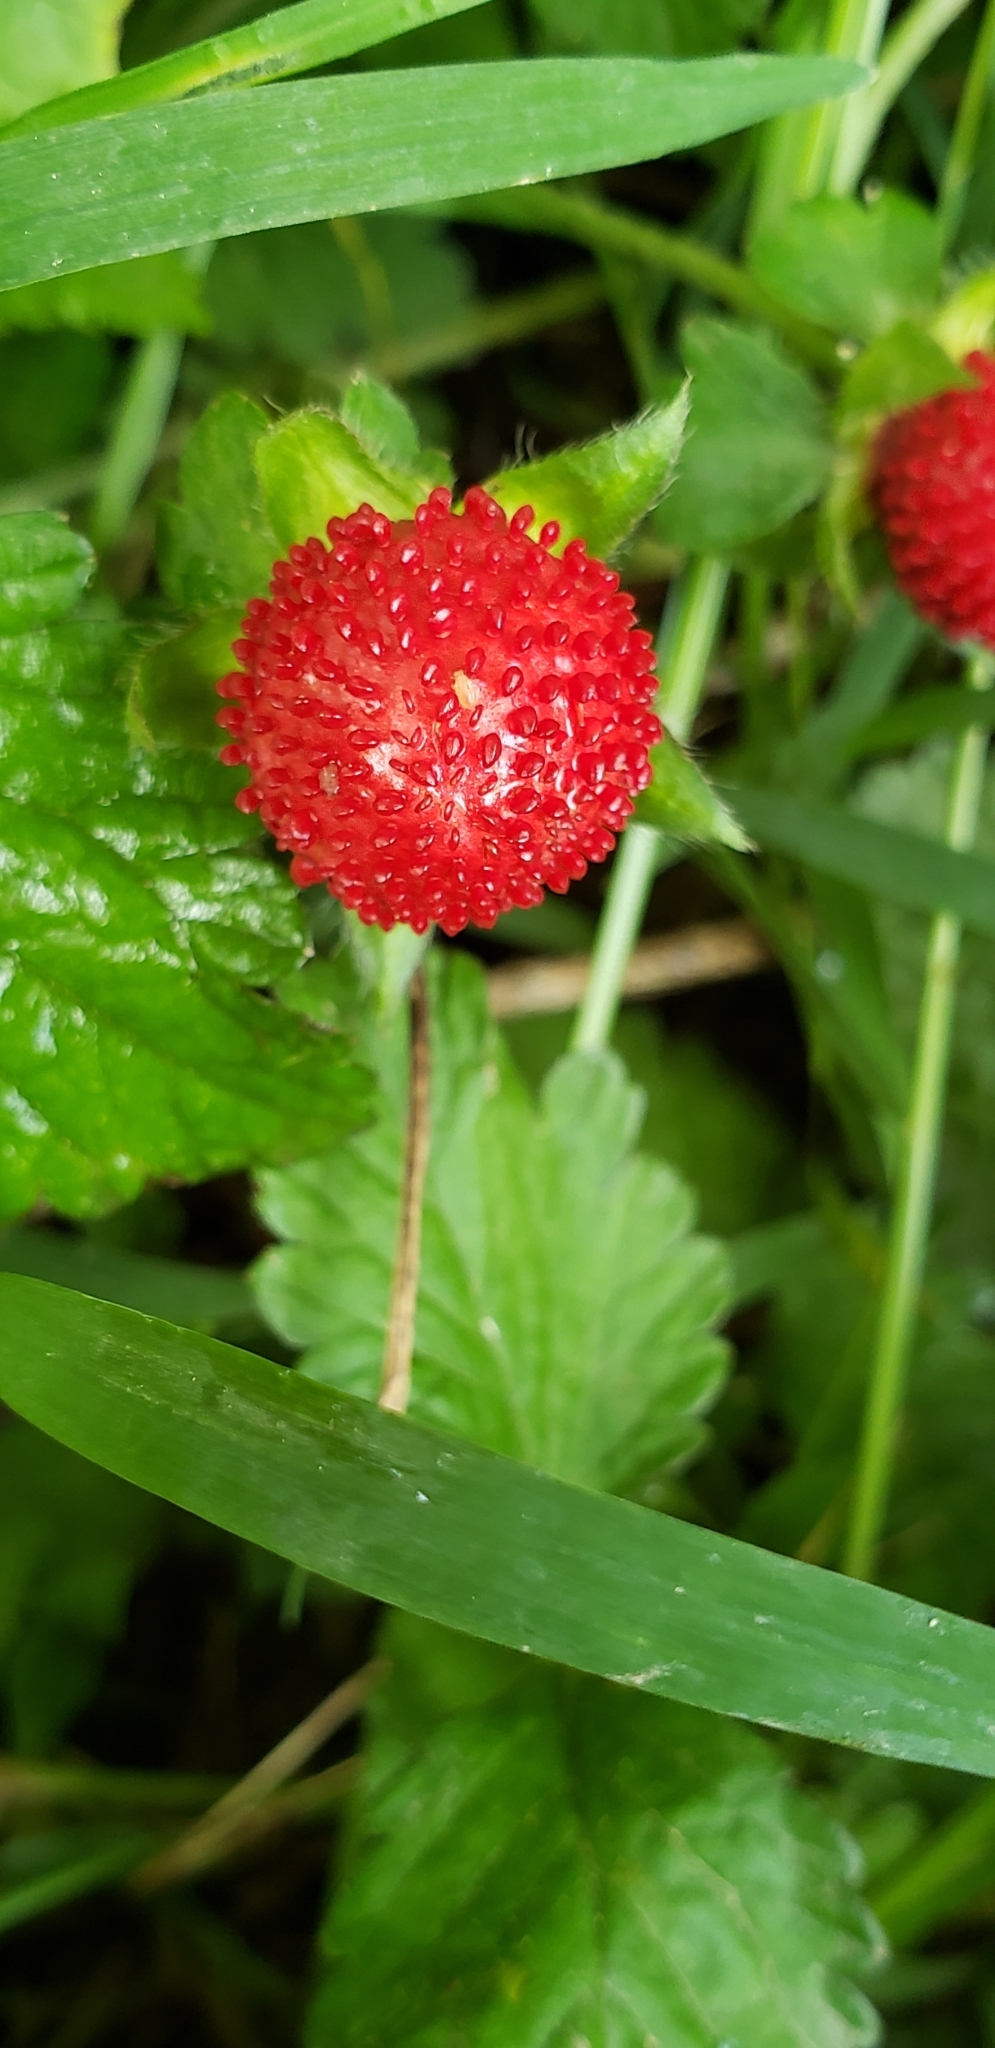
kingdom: Plantae
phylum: Tracheophyta
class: Magnoliopsida
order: Rosales
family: Rosaceae
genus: Potentilla
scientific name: Potentilla indica
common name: Yellow-flowered strawberry
